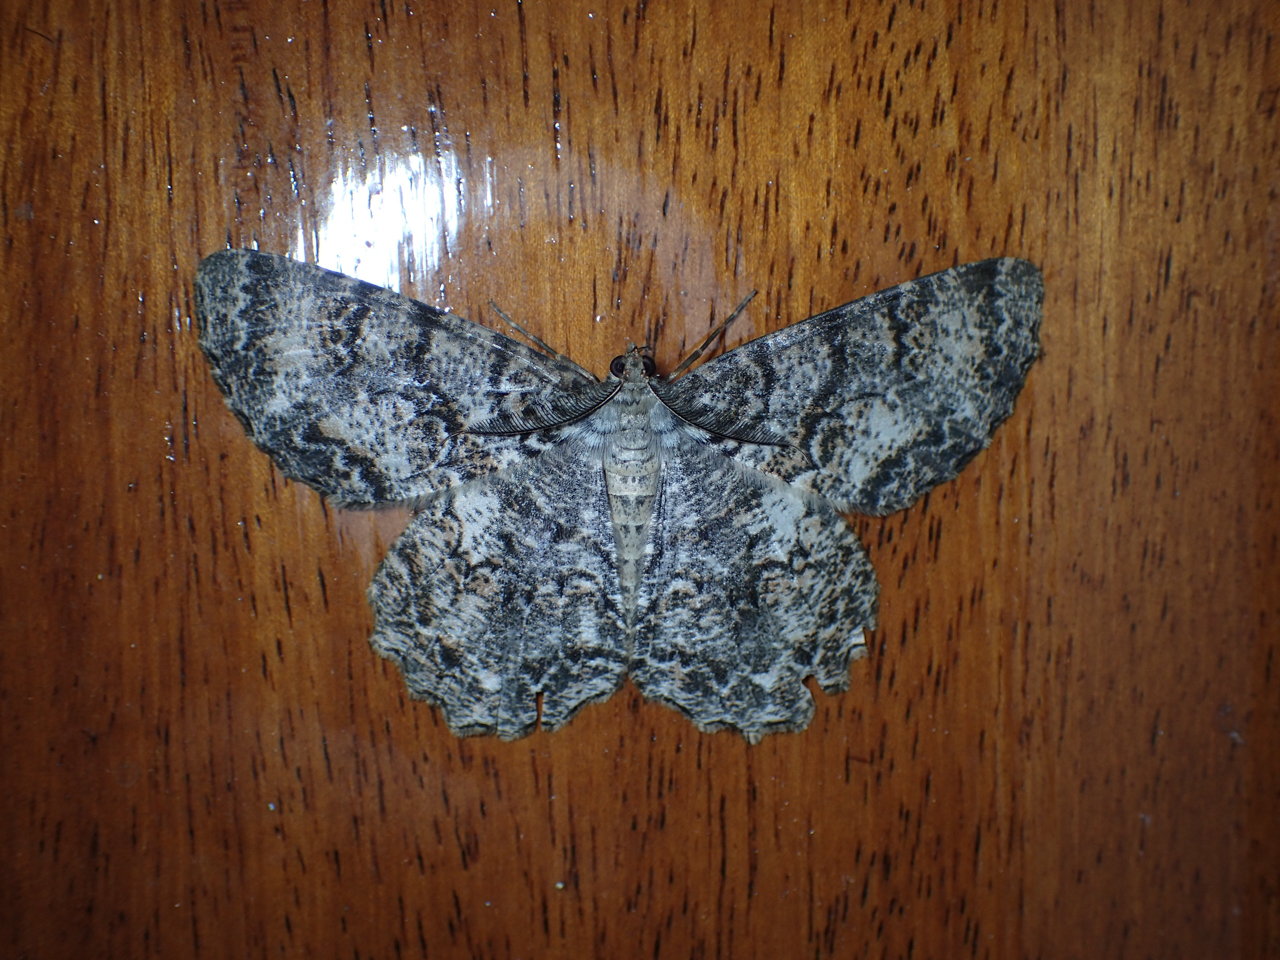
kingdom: Animalia
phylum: Arthropoda
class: Insecta
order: Lepidoptera
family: Geometridae
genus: Epimecis
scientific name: Epimecis hortaria
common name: Tulip-tree beauty
